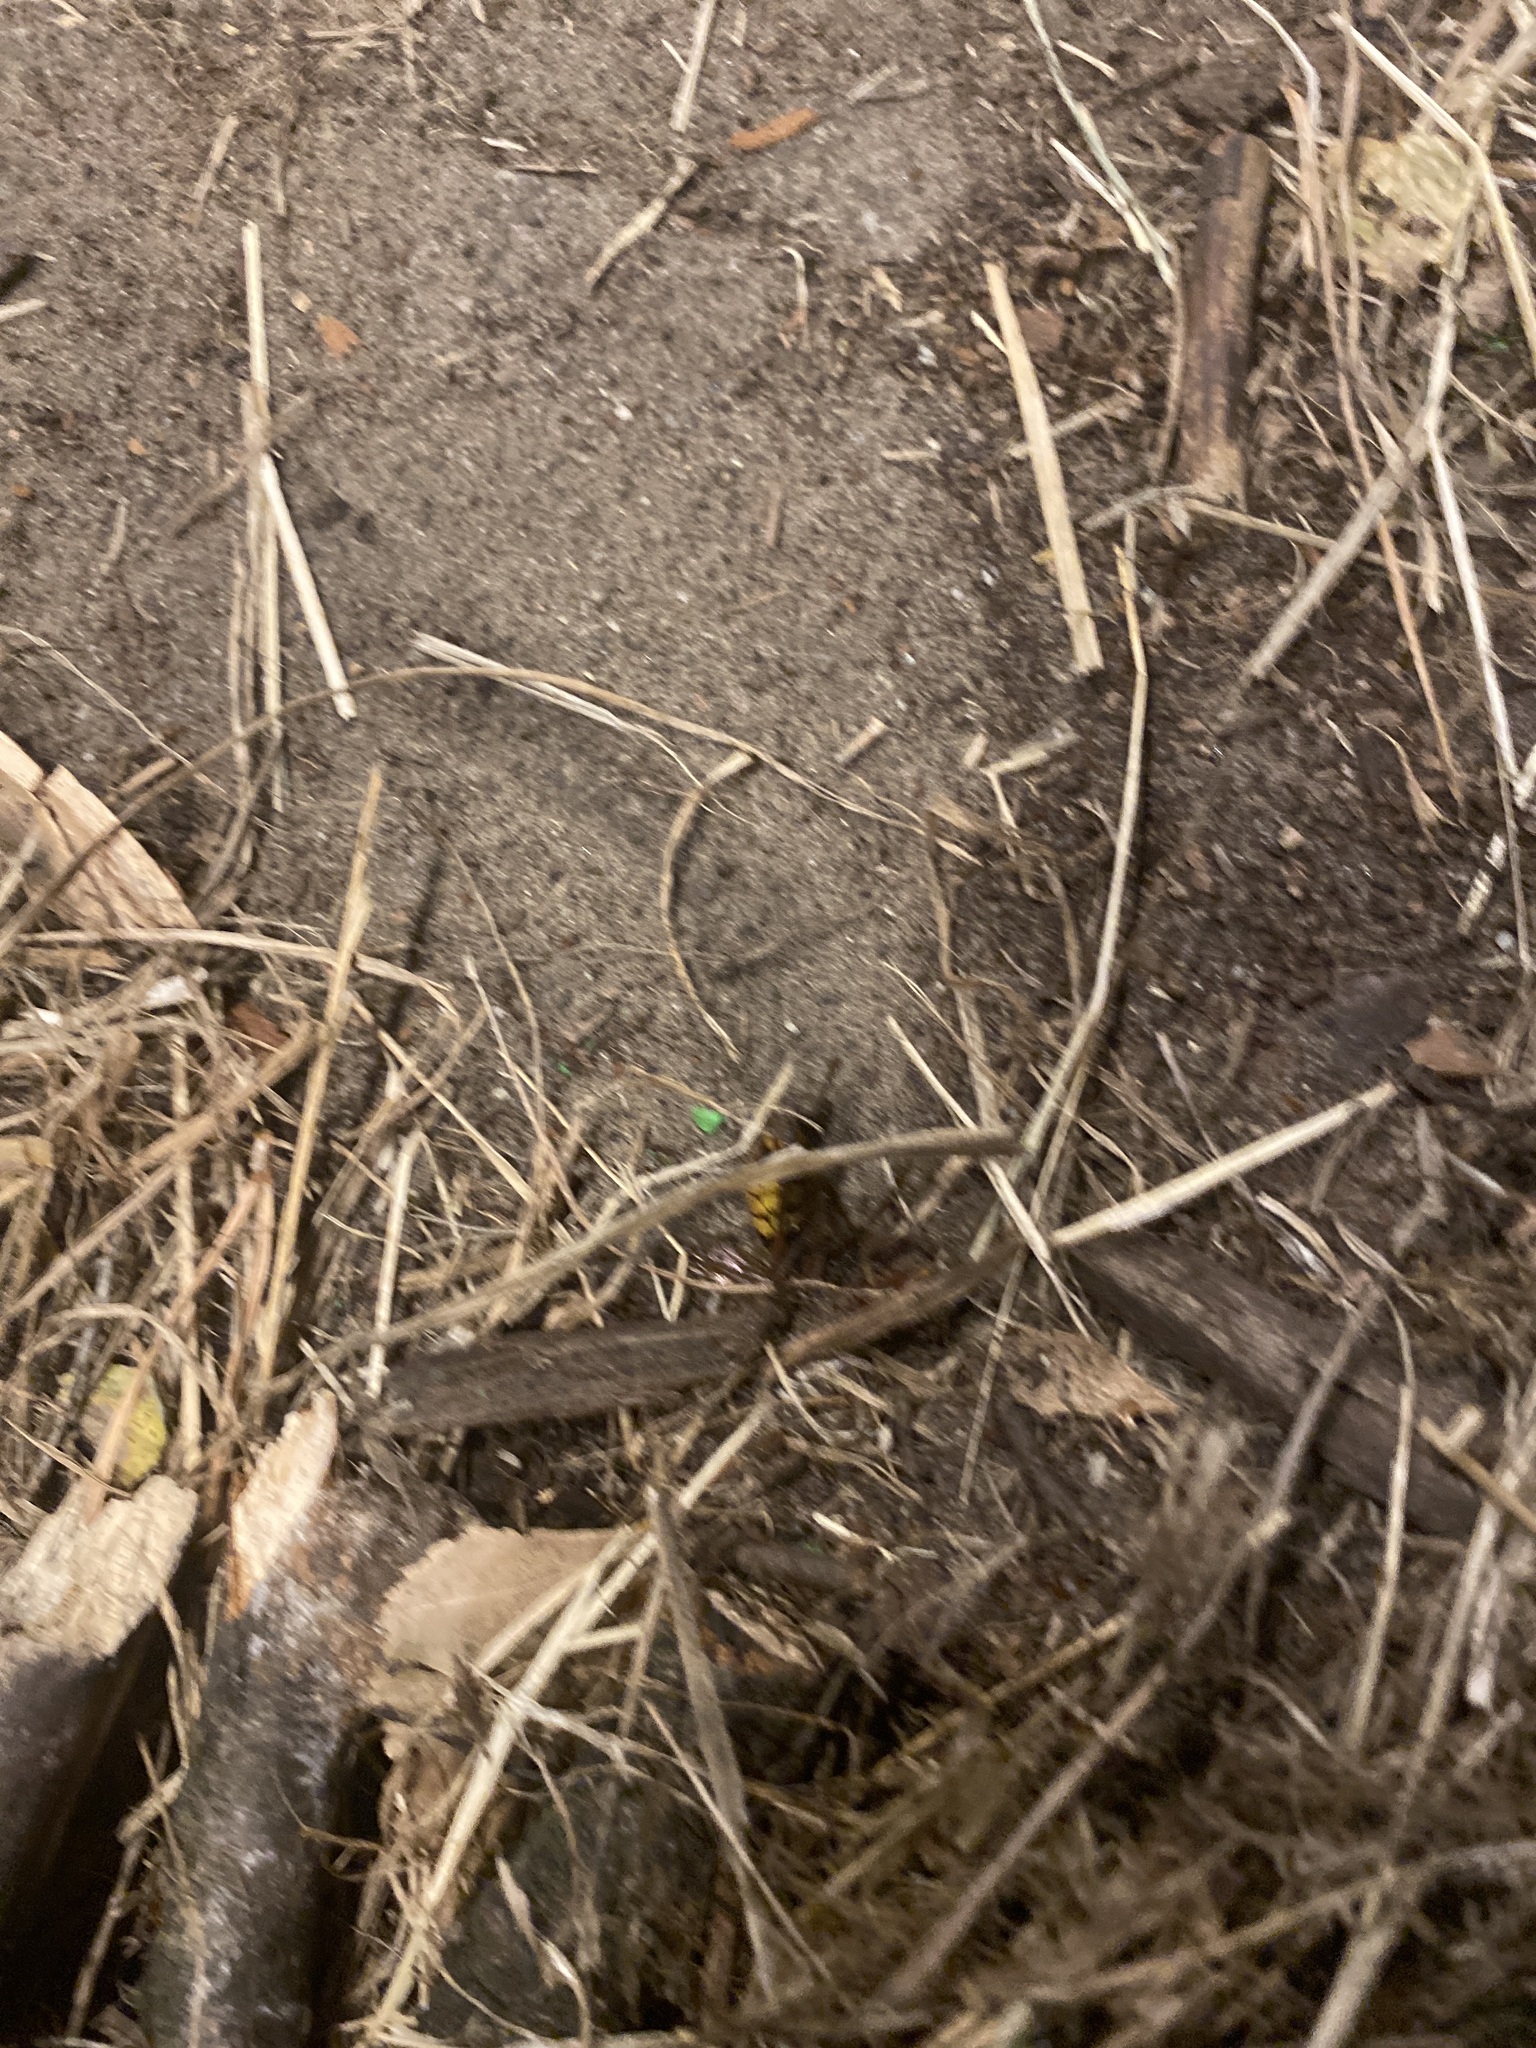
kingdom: Animalia
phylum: Arthropoda
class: Insecta
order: Hymenoptera
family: Vespidae
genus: Vespa
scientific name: Vespa crabro
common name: Hornet
